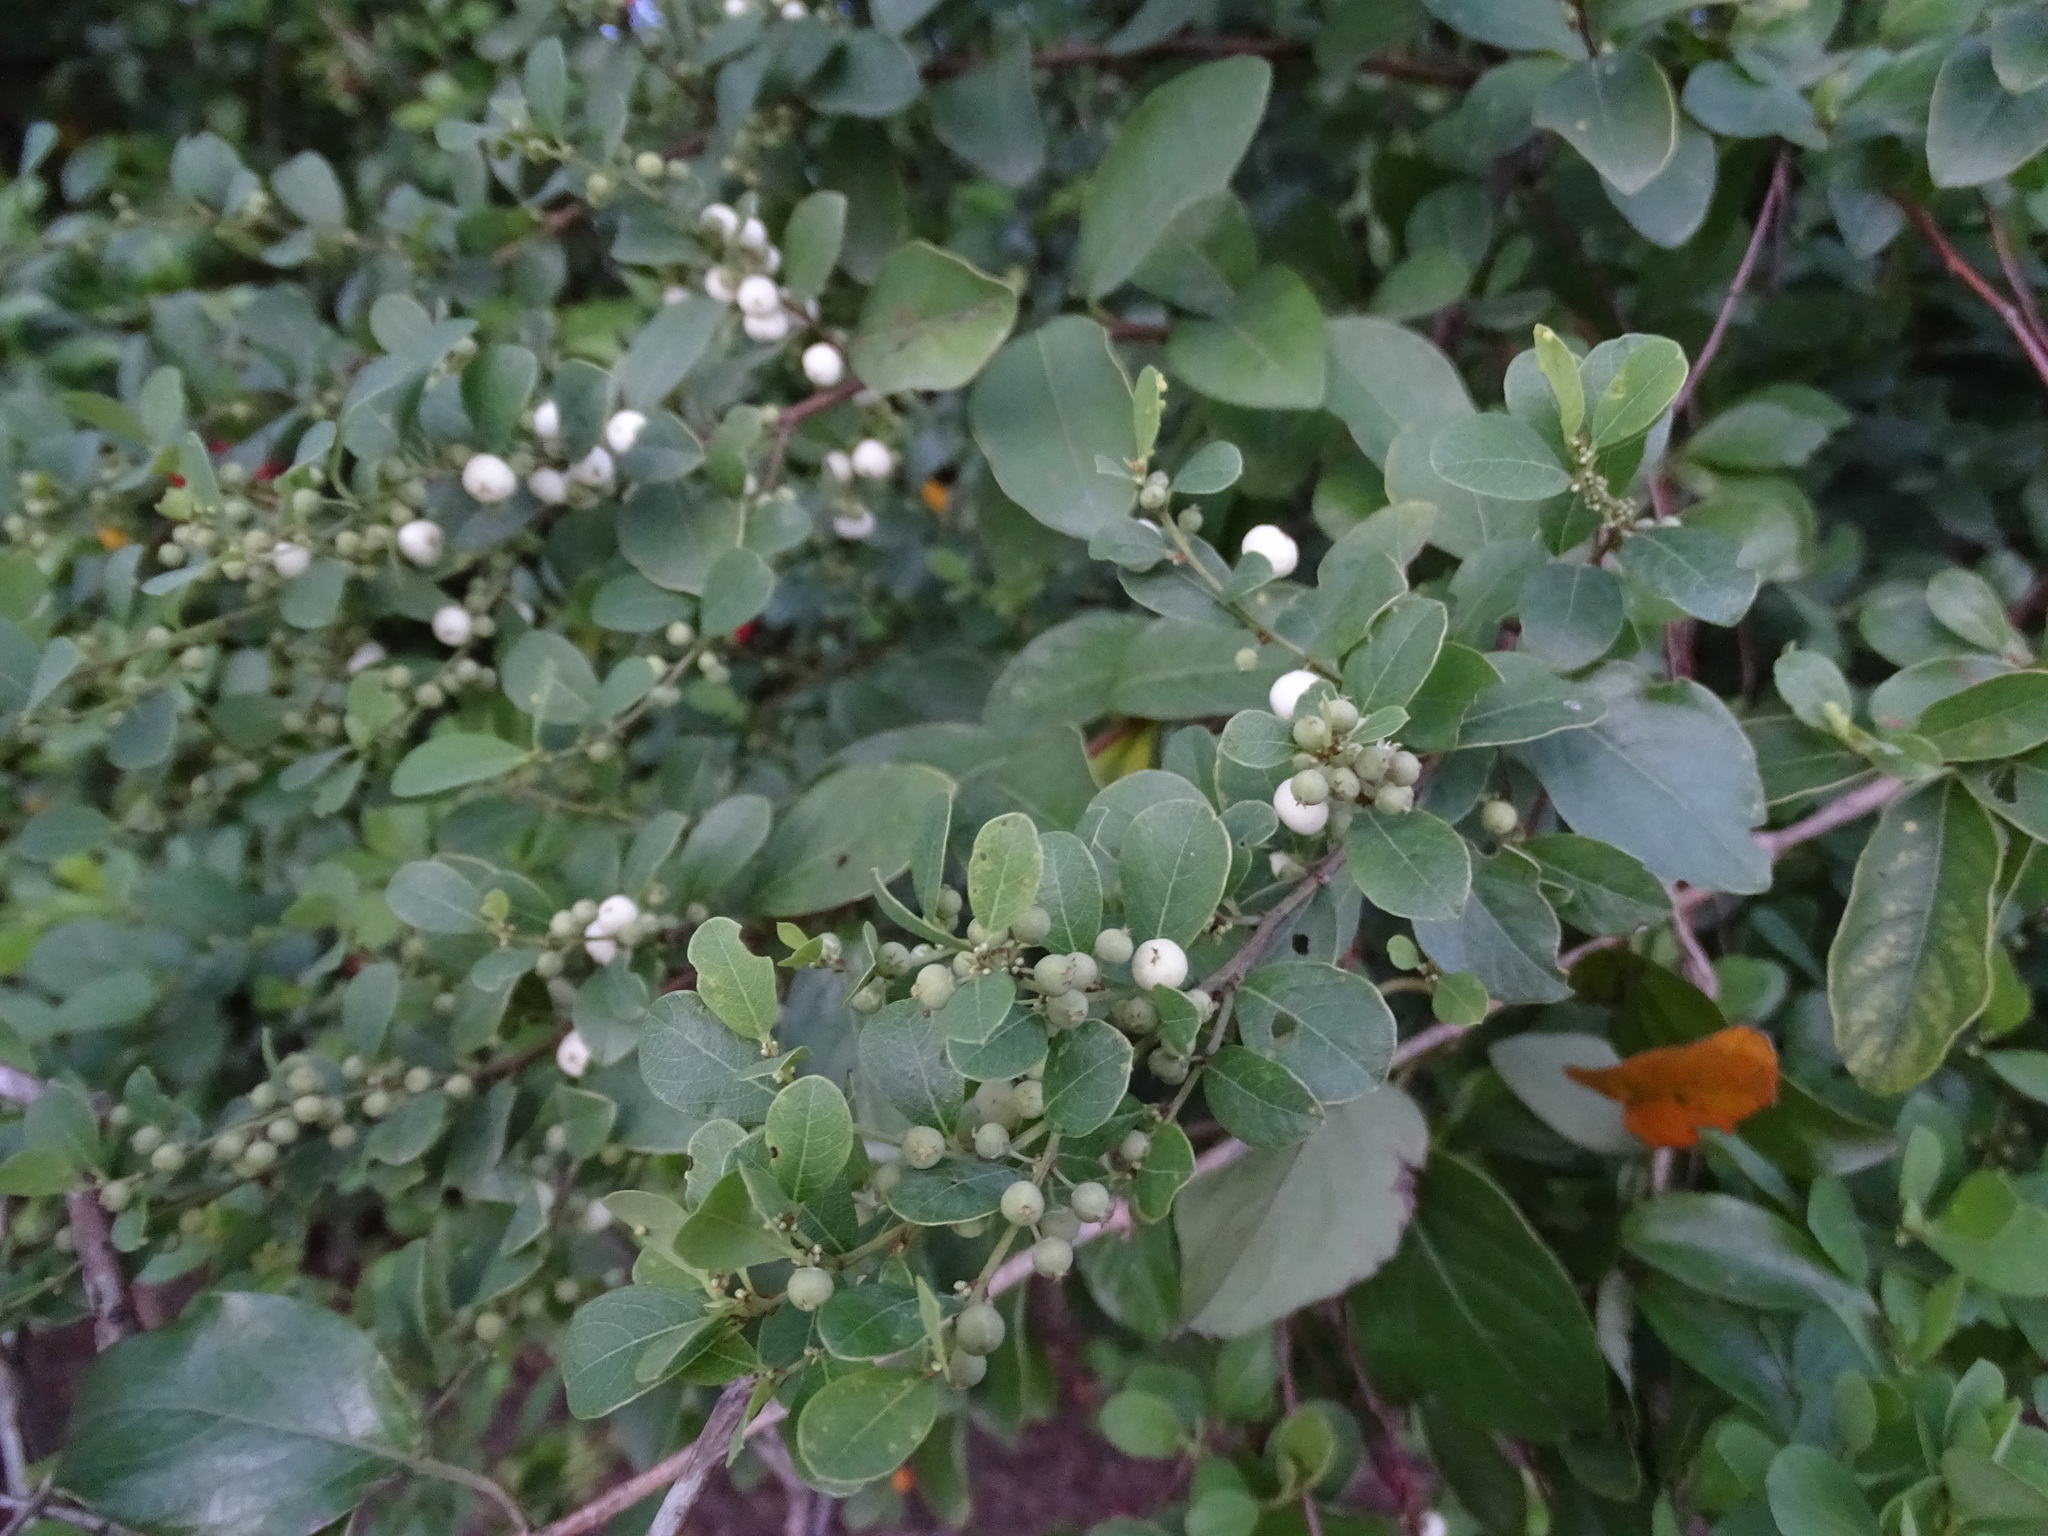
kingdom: Plantae
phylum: Tracheophyta
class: Magnoliopsida
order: Malpighiales
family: Phyllanthaceae
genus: Flueggea
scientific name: Flueggea virosa
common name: Common bushweed
